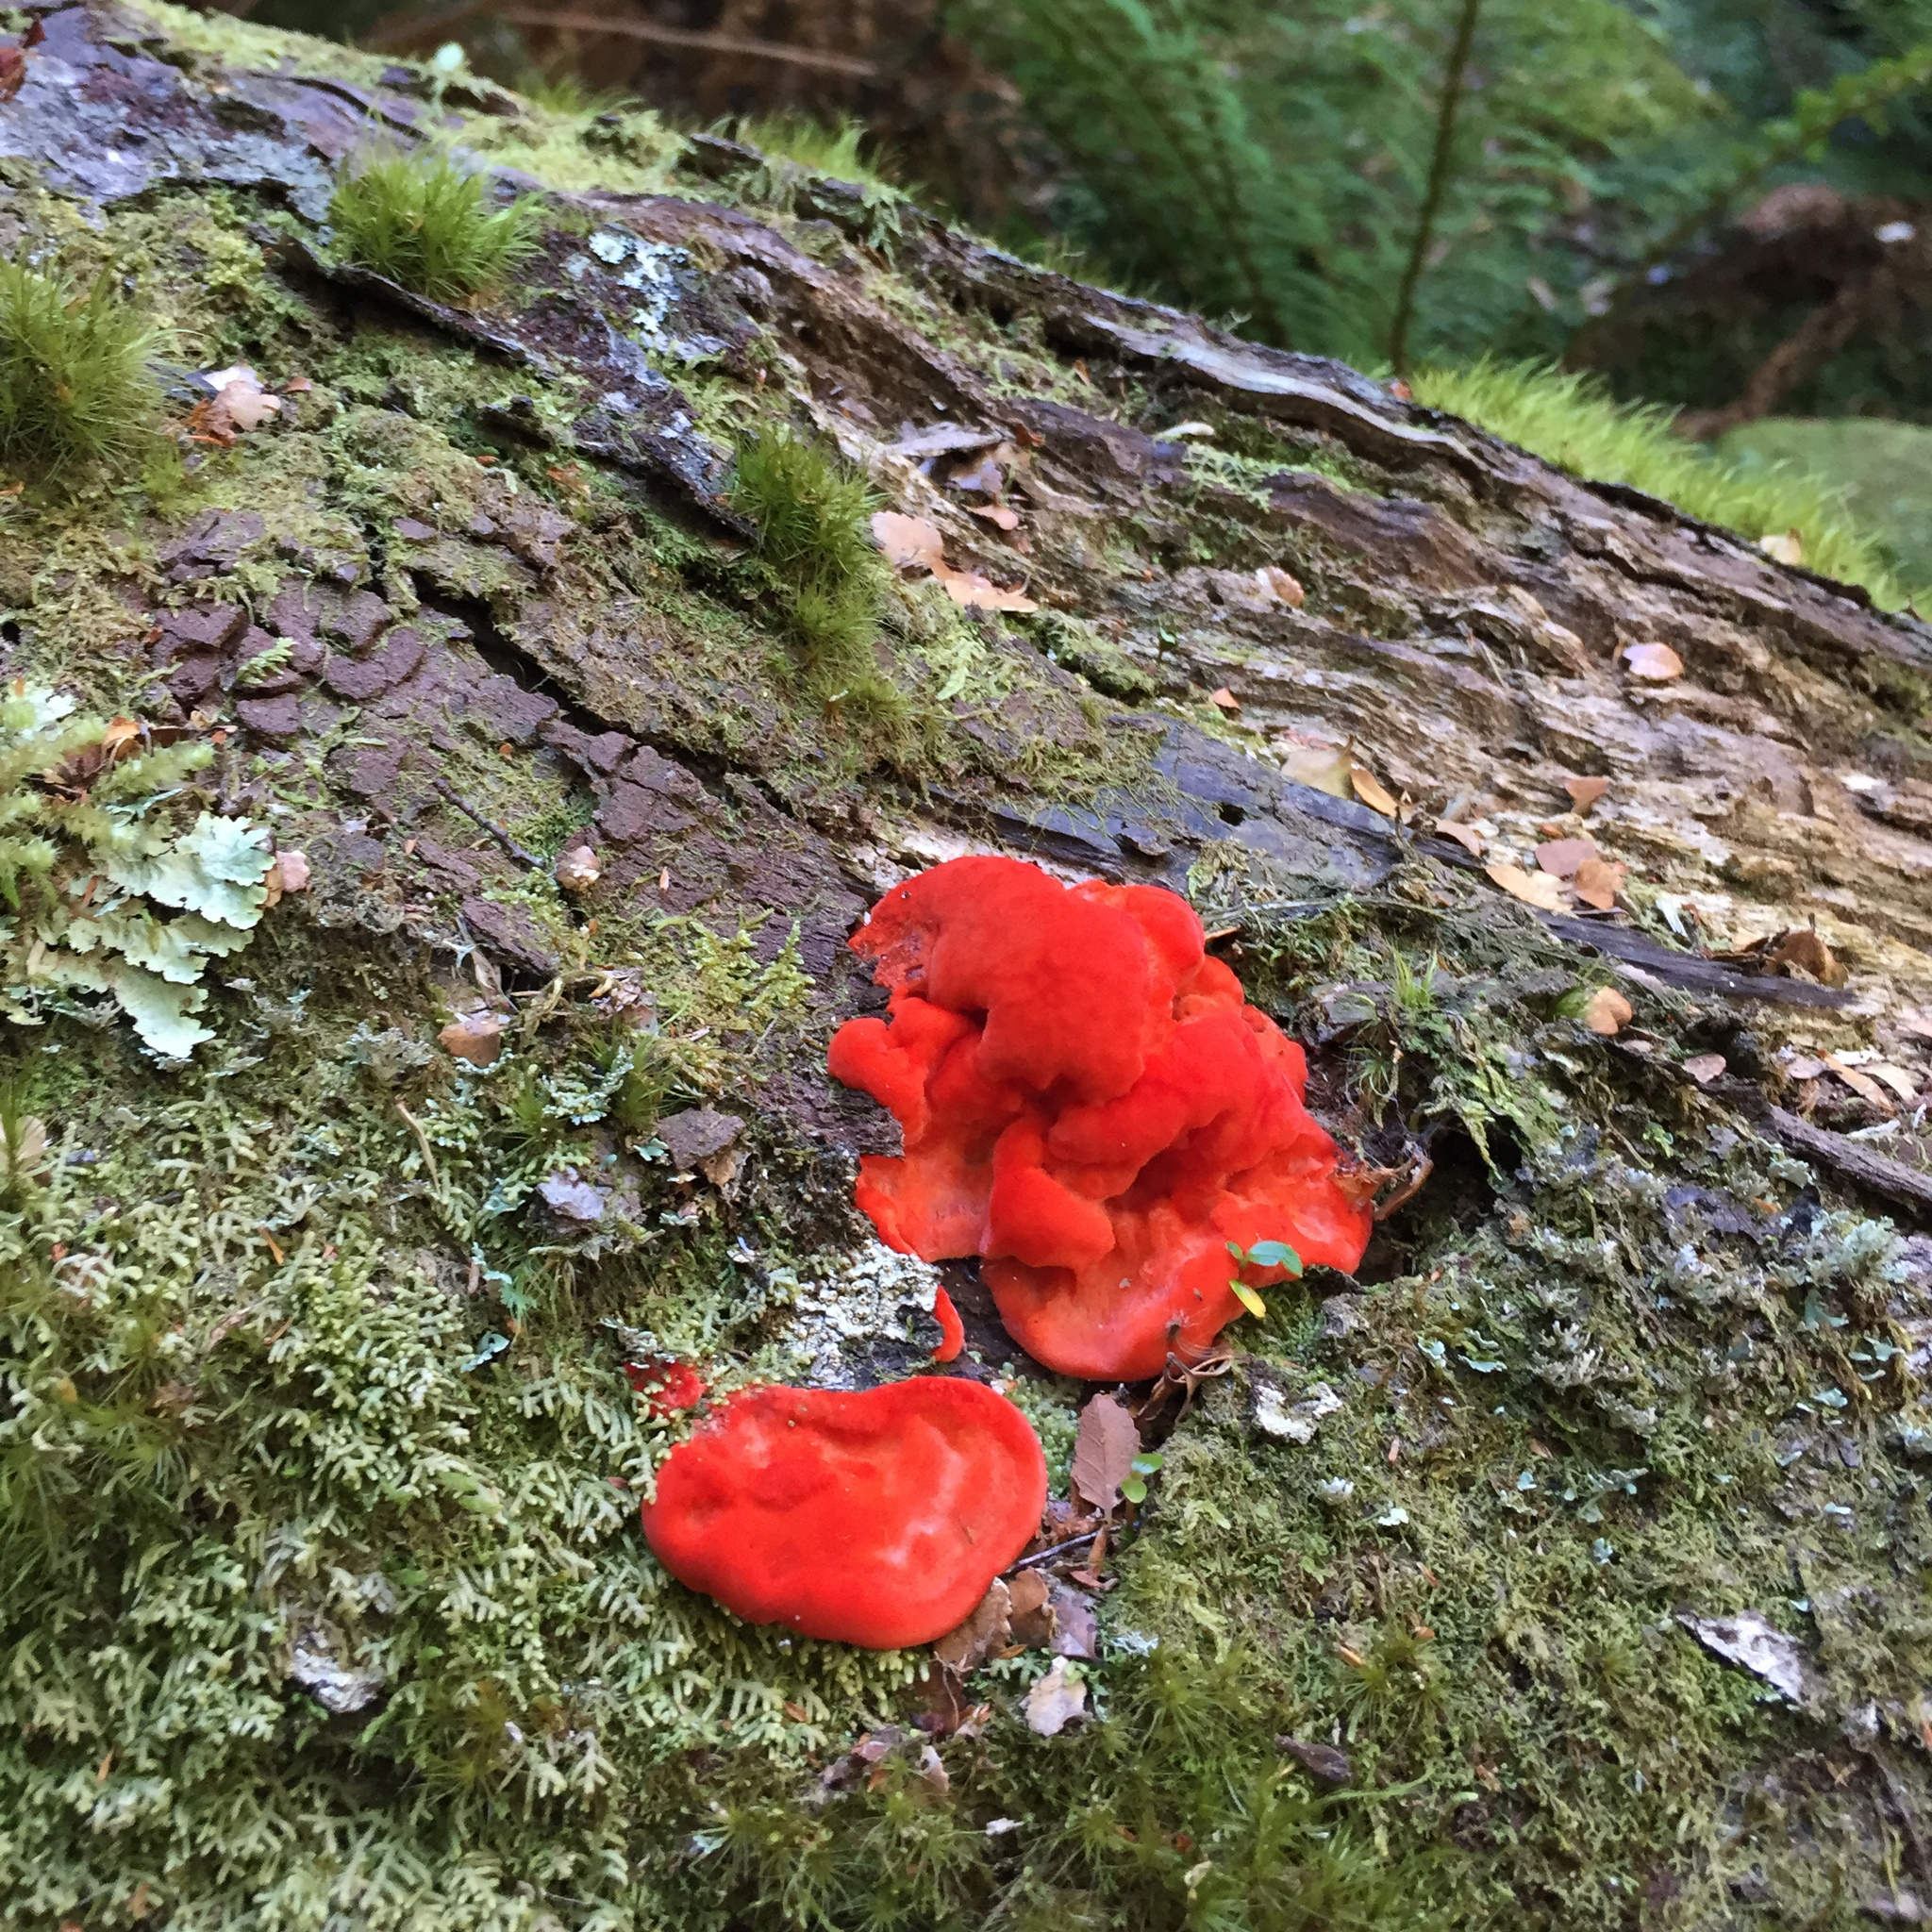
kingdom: Fungi
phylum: Basidiomycota
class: Agaricomycetes
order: Polyporales
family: Incrustoporiaceae
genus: Tyromyces
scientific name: Tyromyces pulcherrimus
